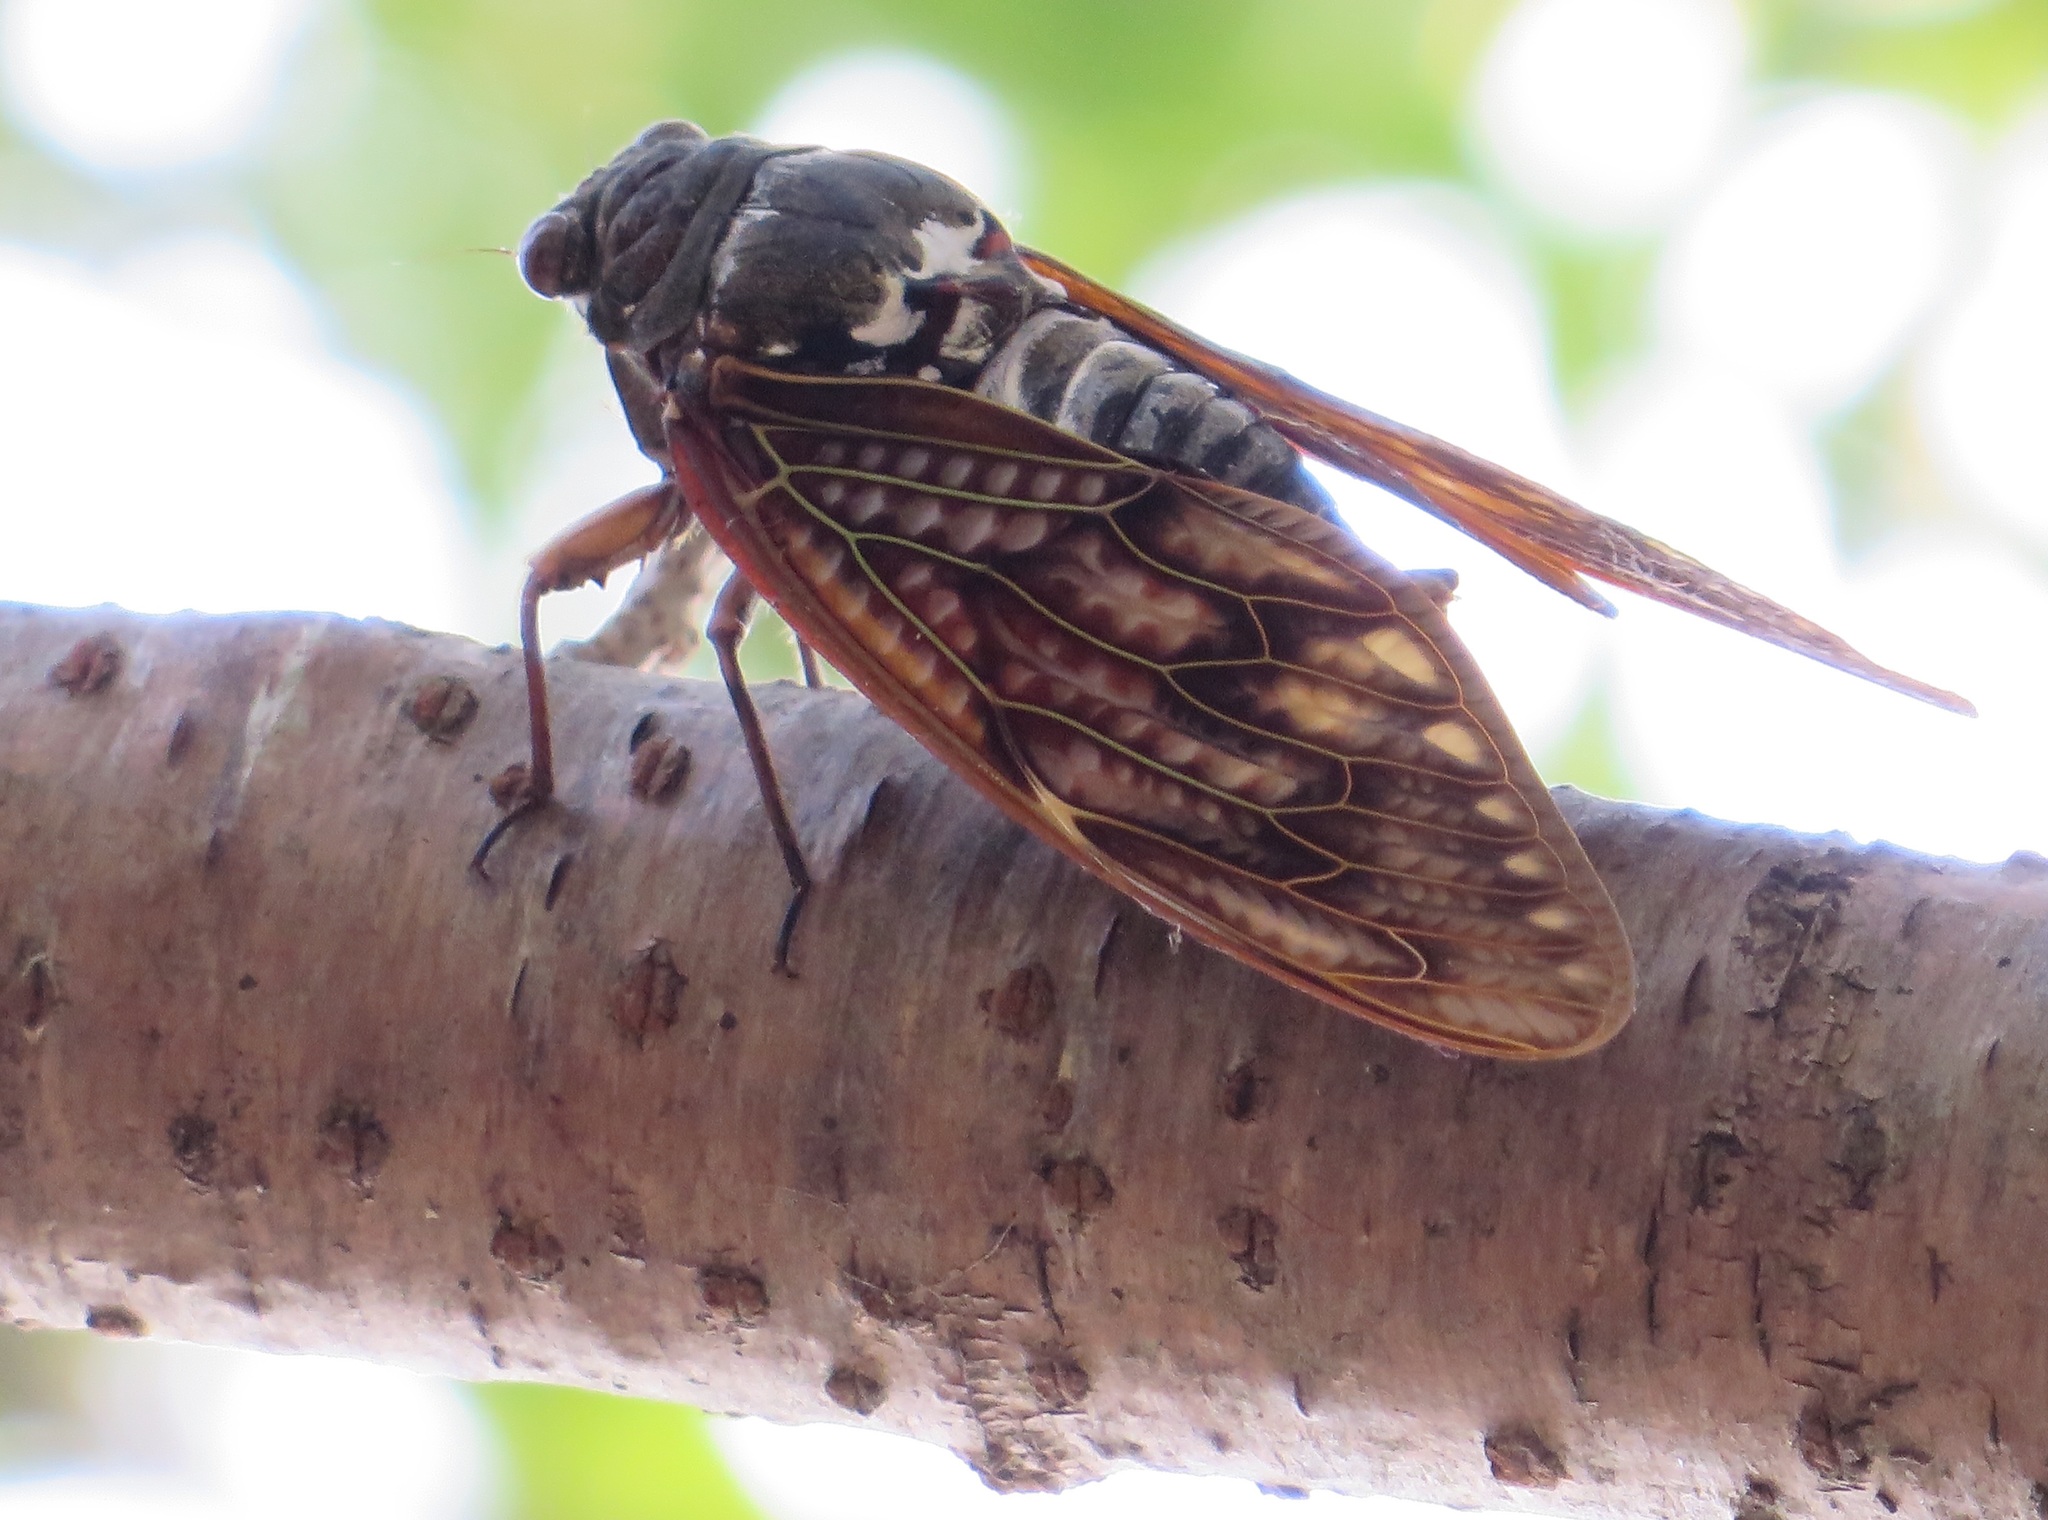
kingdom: Animalia
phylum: Arthropoda
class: Insecta
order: Hemiptera
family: Cicadidae
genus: Graptopsaltria
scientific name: Graptopsaltria nigrofuscata
